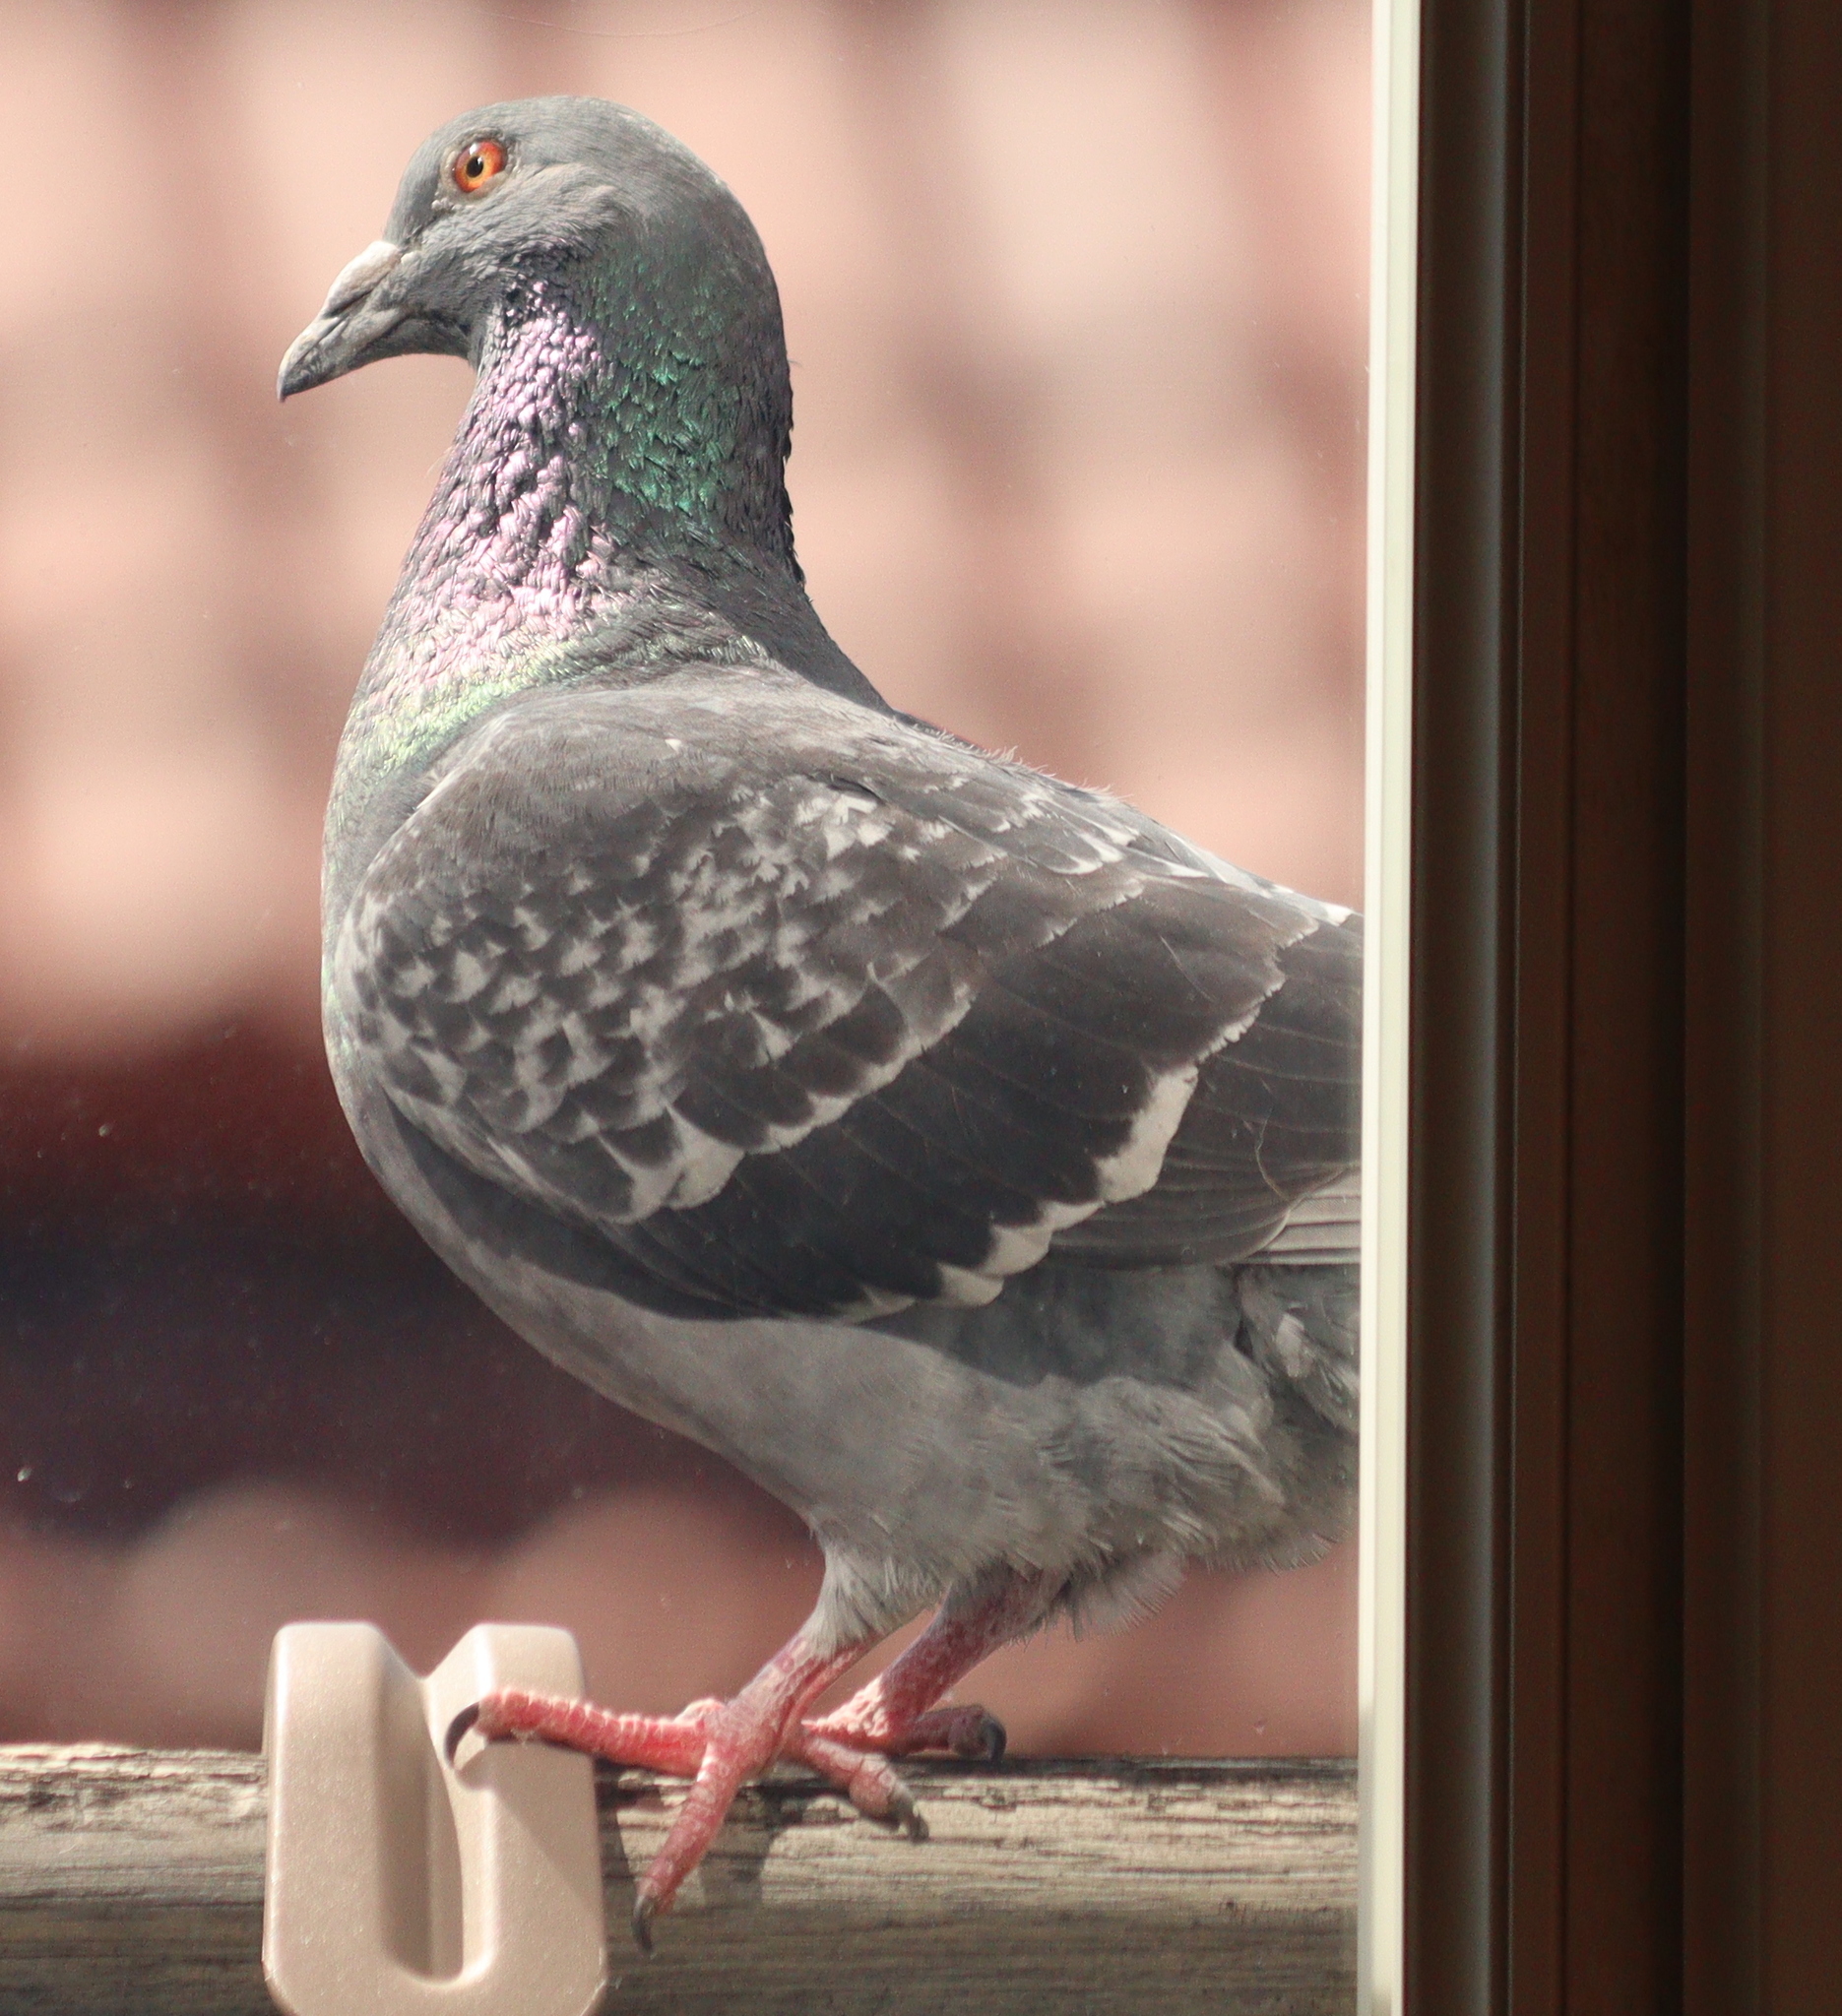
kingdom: Animalia
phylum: Chordata
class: Aves
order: Columbiformes
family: Columbidae
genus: Columba
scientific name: Columba livia
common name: Rock pigeon
